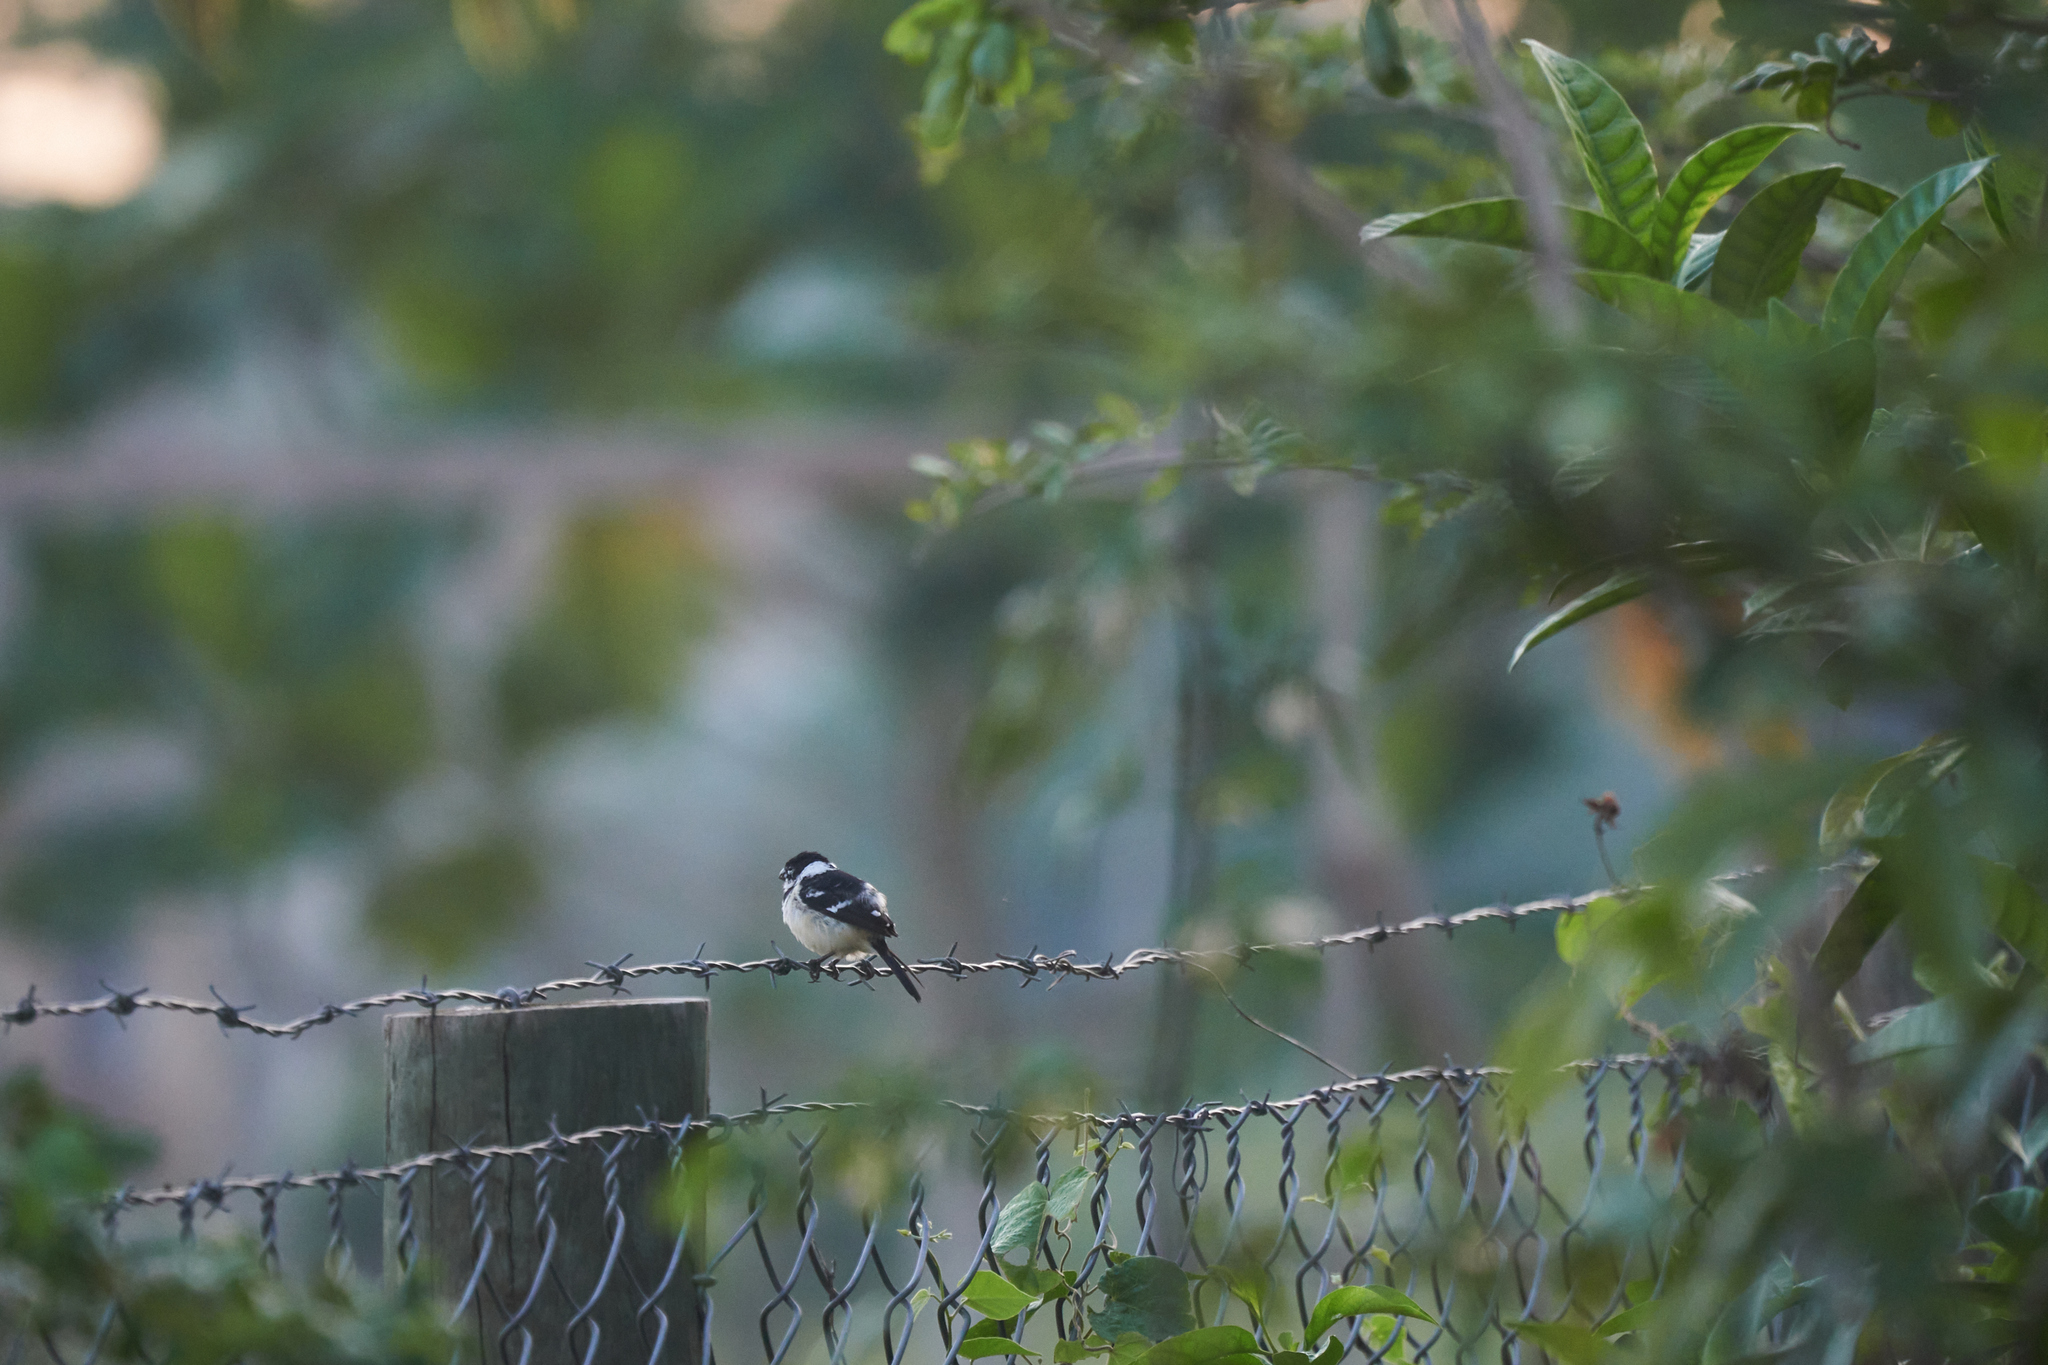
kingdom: Animalia
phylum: Chordata
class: Aves
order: Passeriformes
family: Thraupidae
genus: Sporophila
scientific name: Sporophila morelleti
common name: Morelet's seedeater
